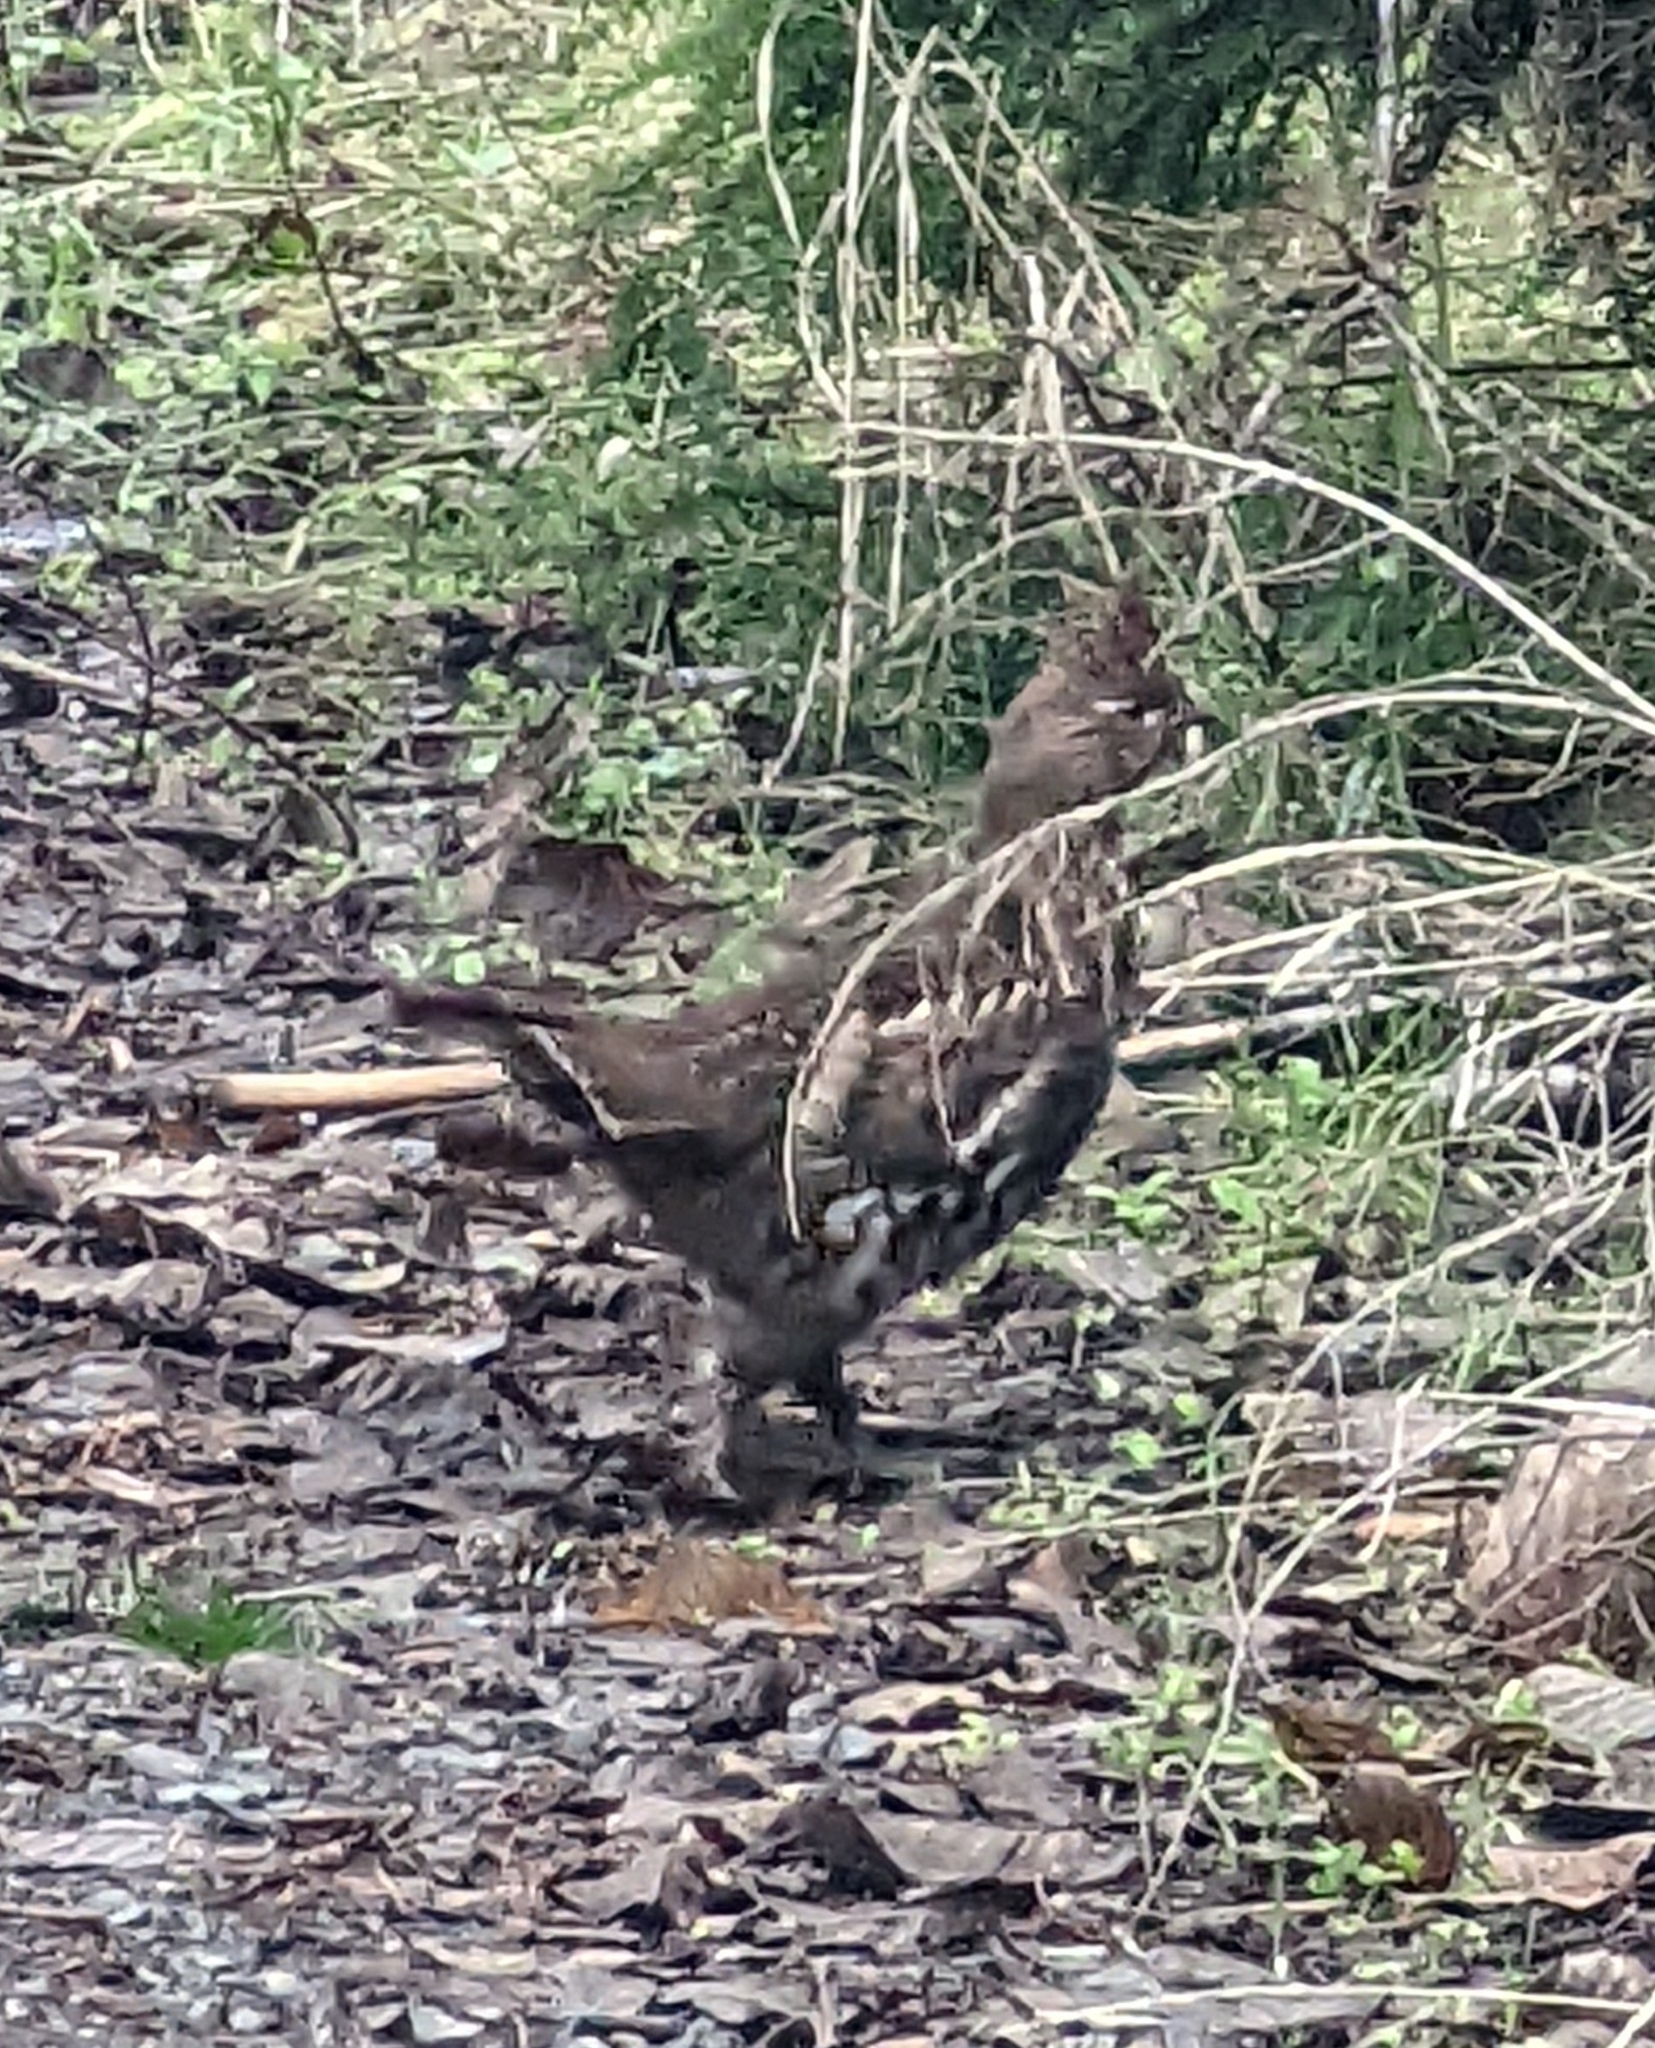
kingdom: Animalia
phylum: Chordata
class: Aves
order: Galliformes
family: Phasianidae
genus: Bonasa
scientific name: Bonasa umbellus
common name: Ruffed grouse
